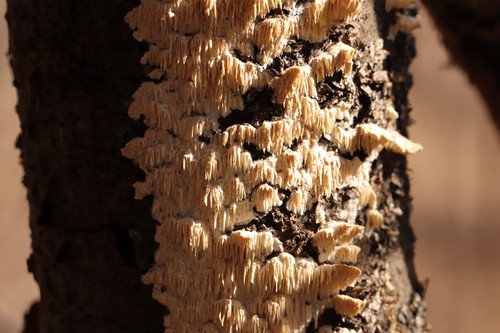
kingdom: Fungi
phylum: Basidiomycota
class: Agaricomycetes
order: Polyporales
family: Irpicaceae
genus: Irpex
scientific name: Irpex lacteus
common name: Milk-white toothed polypore
